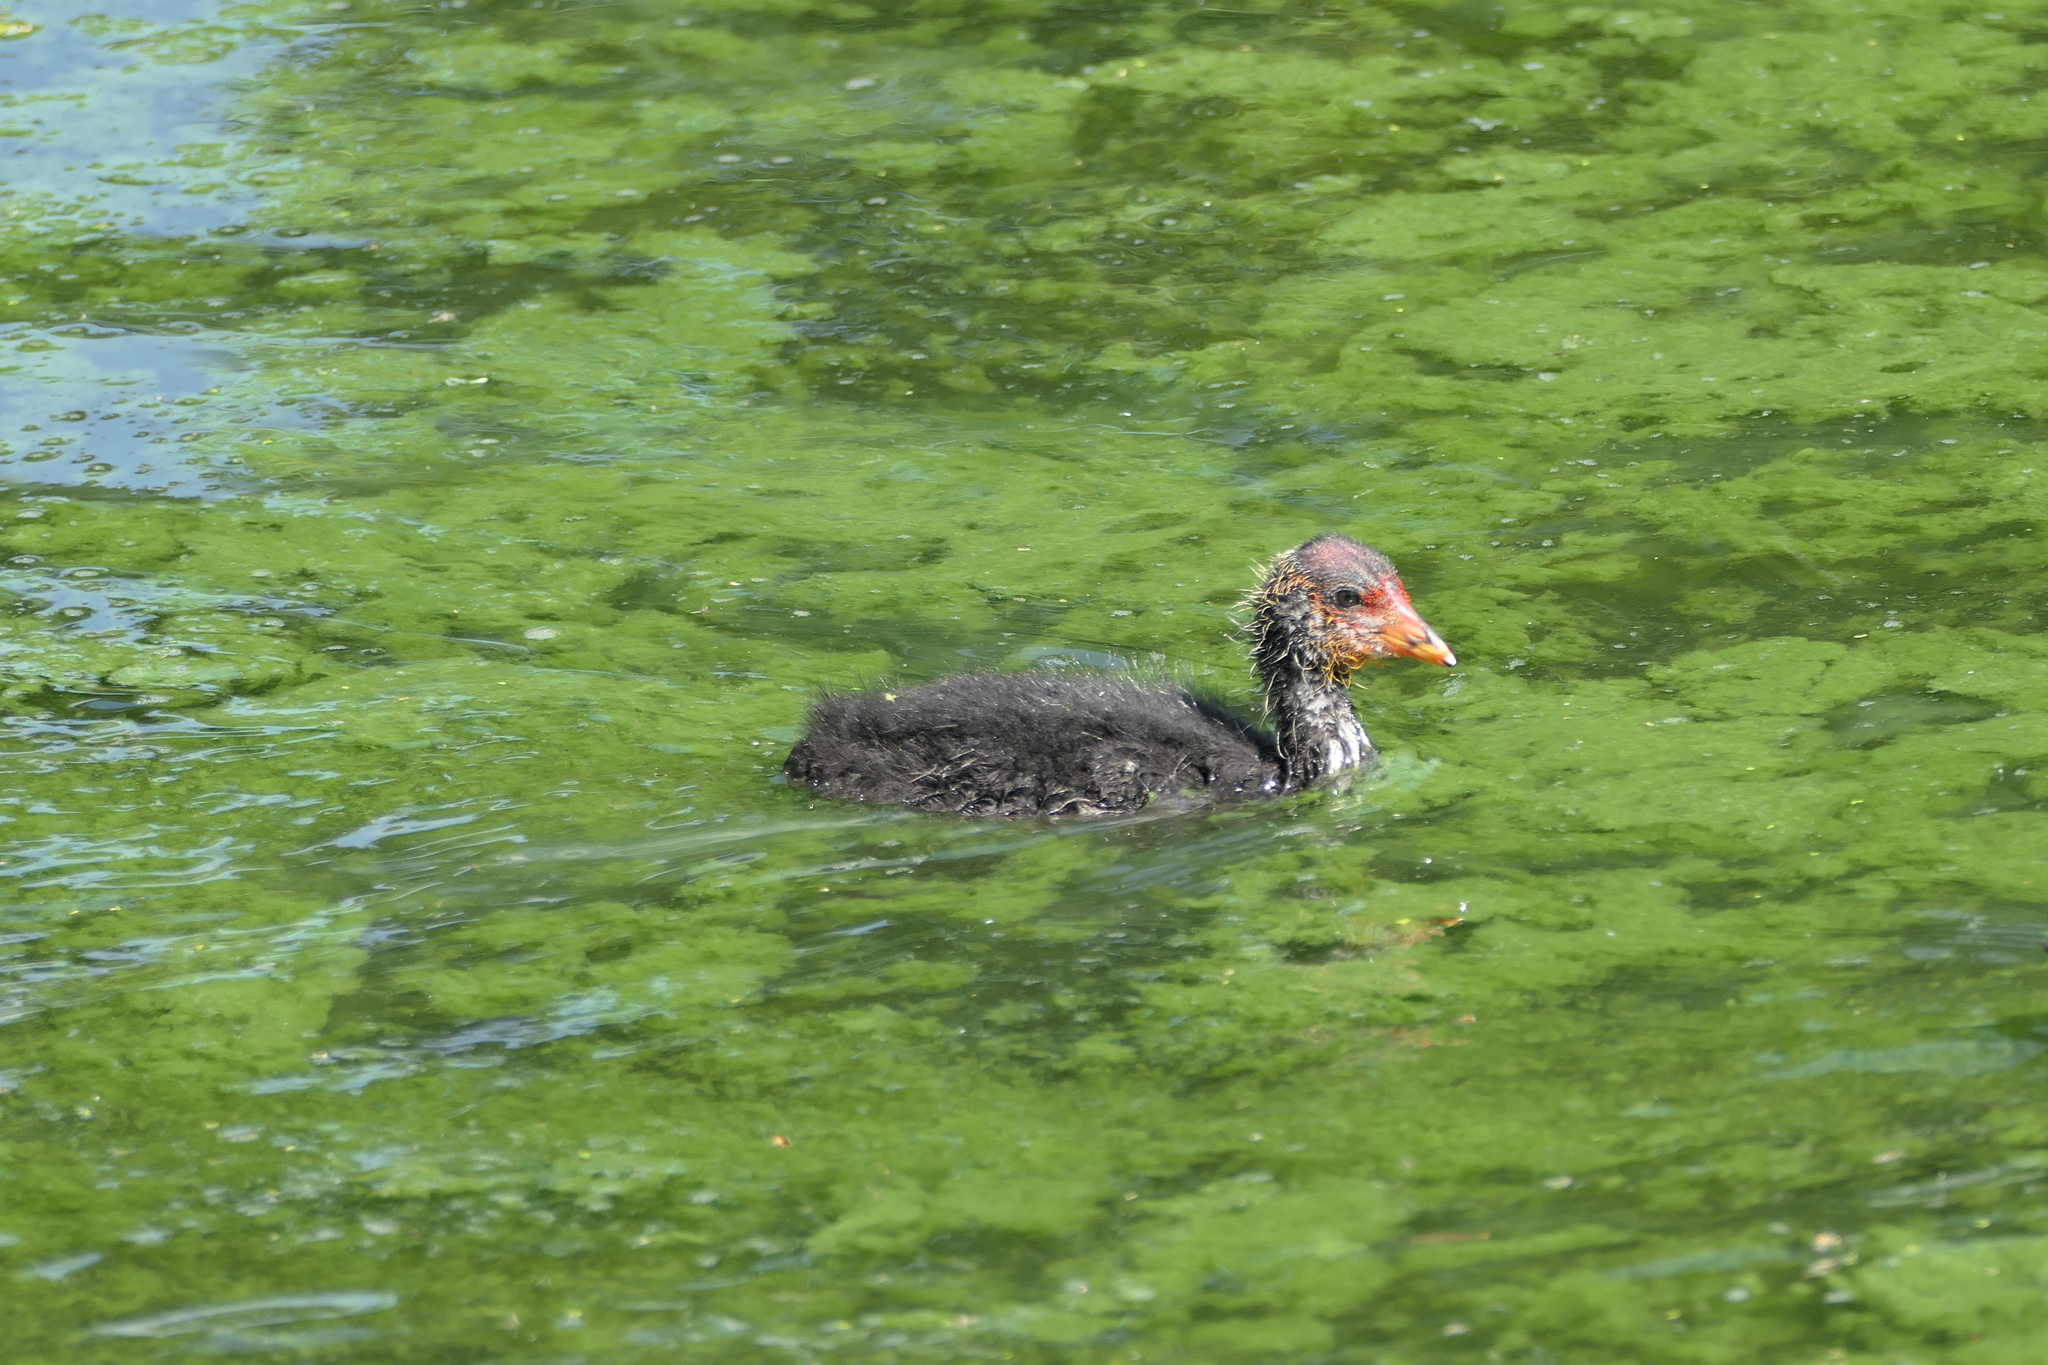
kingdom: Animalia
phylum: Chordata
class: Aves
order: Gruiformes
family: Rallidae
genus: Fulica
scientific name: Fulica atra
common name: Eurasian coot
